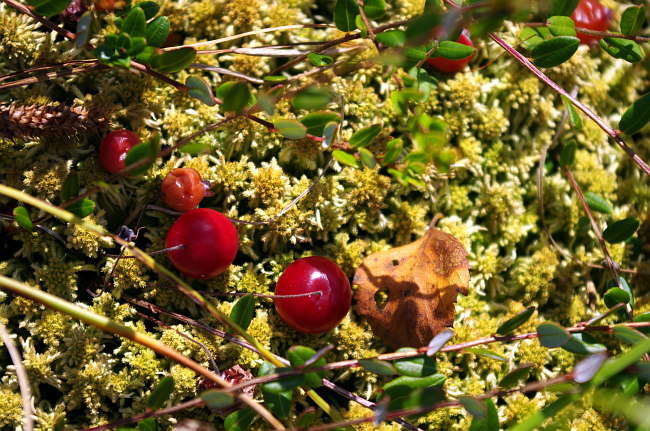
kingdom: Plantae
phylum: Tracheophyta
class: Magnoliopsida
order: Ericales
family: Ericaceae
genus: Vaccinium
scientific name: Vaccinium oxycoccos
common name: Cranberry
